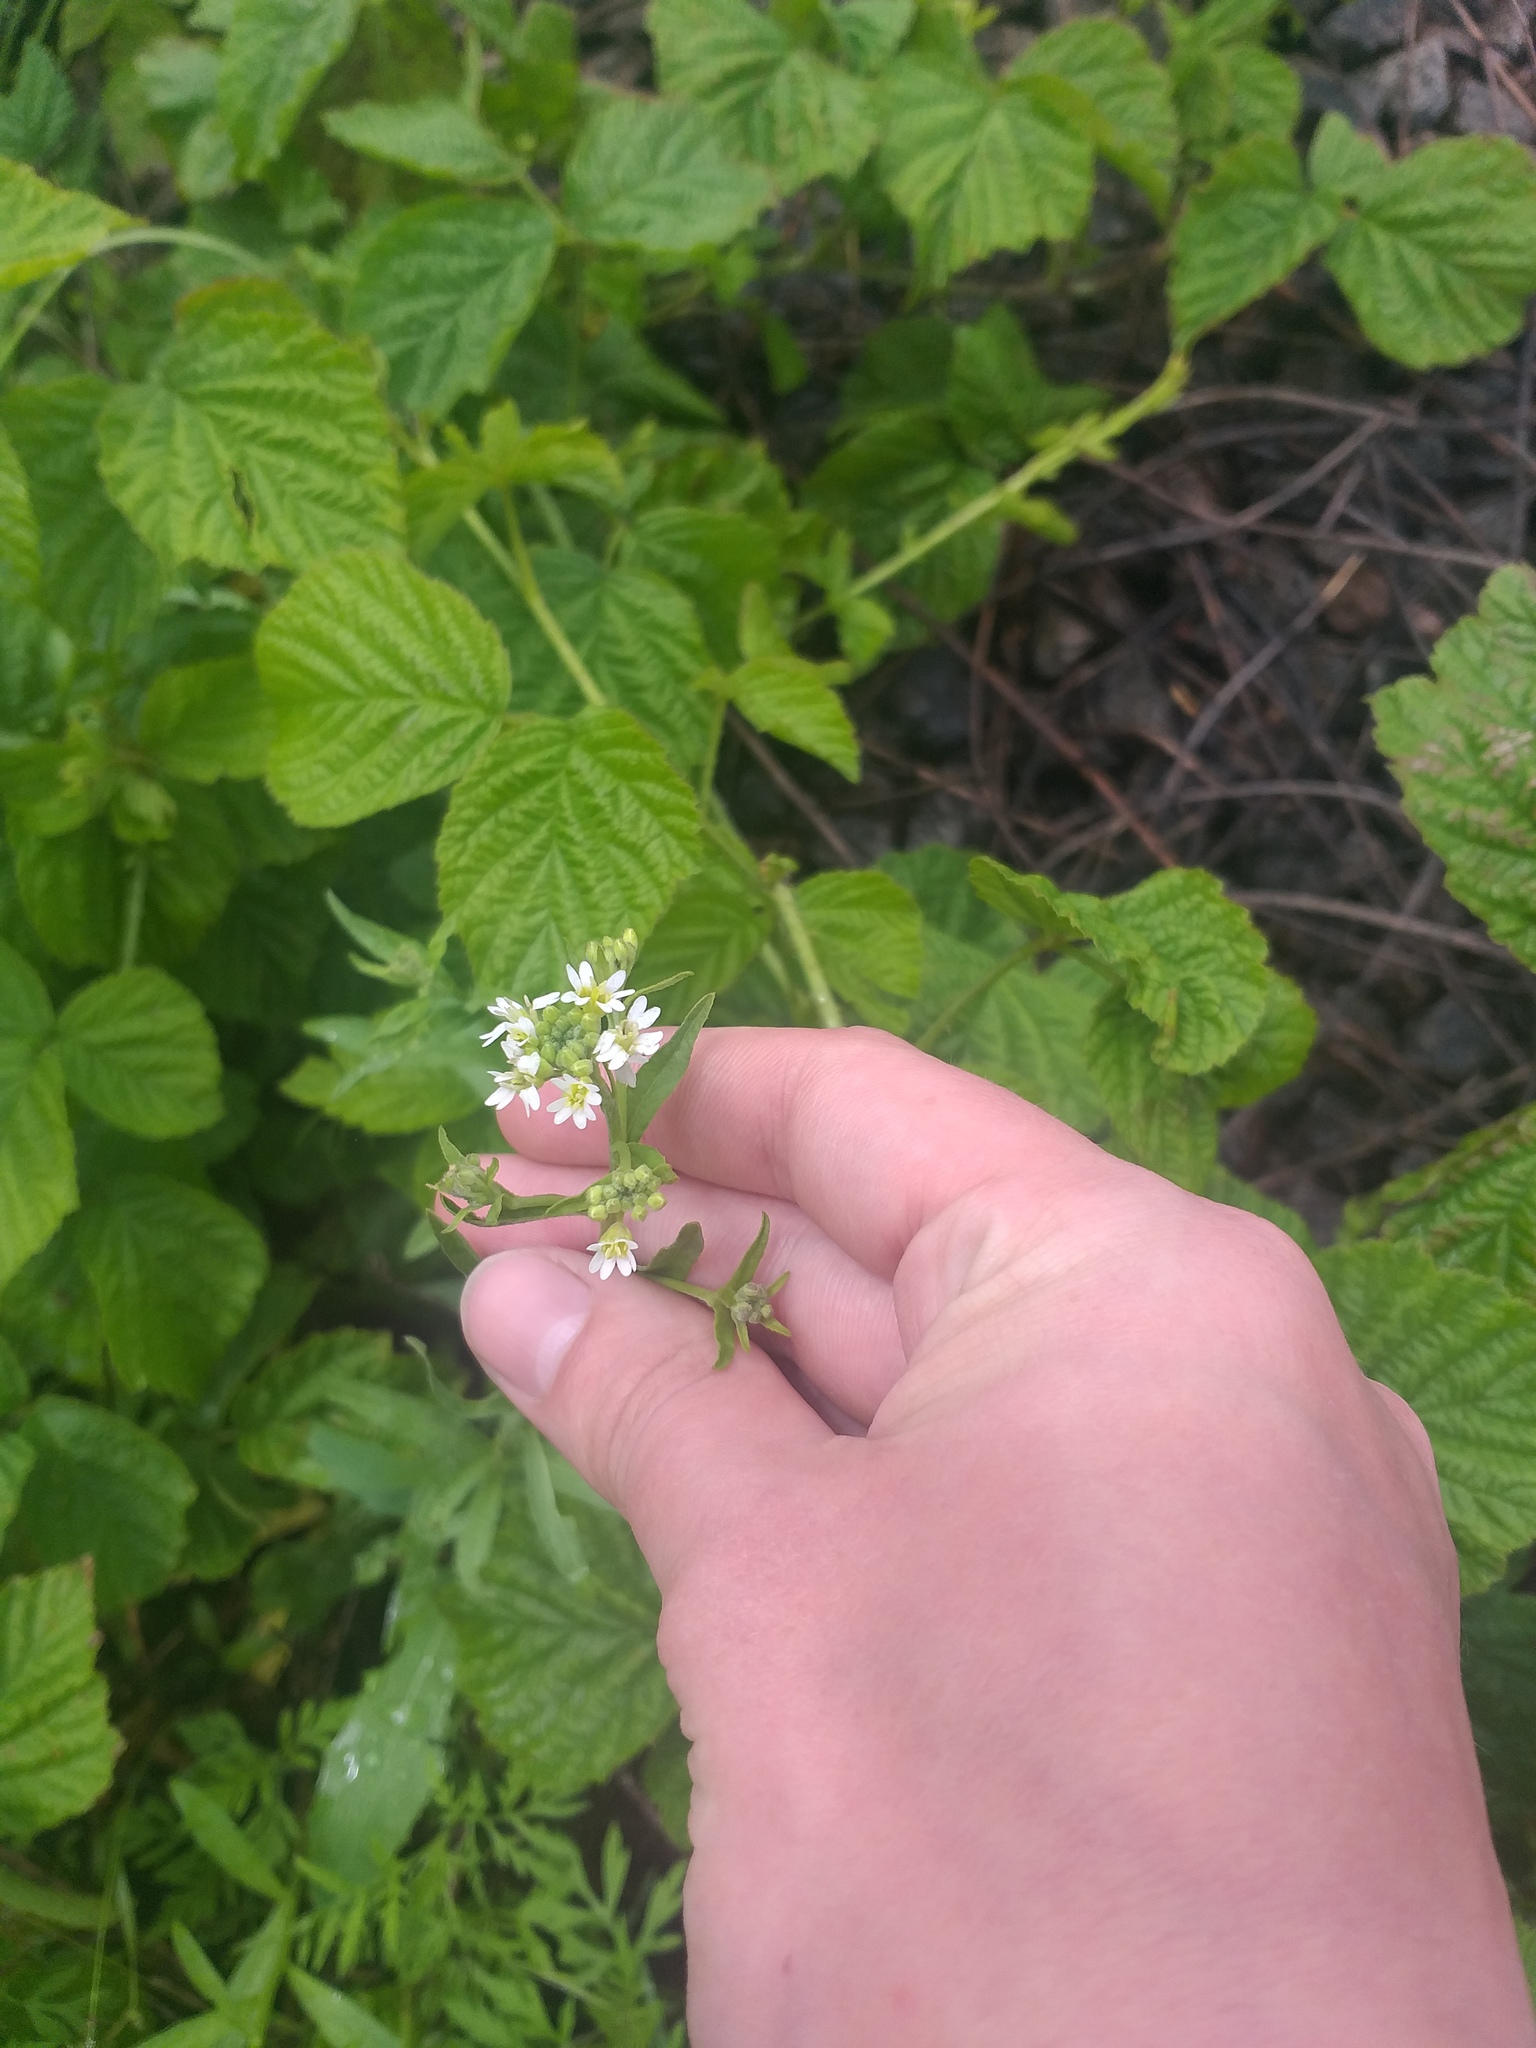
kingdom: Plantae
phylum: Tracheophyta
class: Magnoliopsida
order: Brassicales
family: Brassicaceae
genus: Berteroa
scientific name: Berteroa incana
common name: Hoary alison
